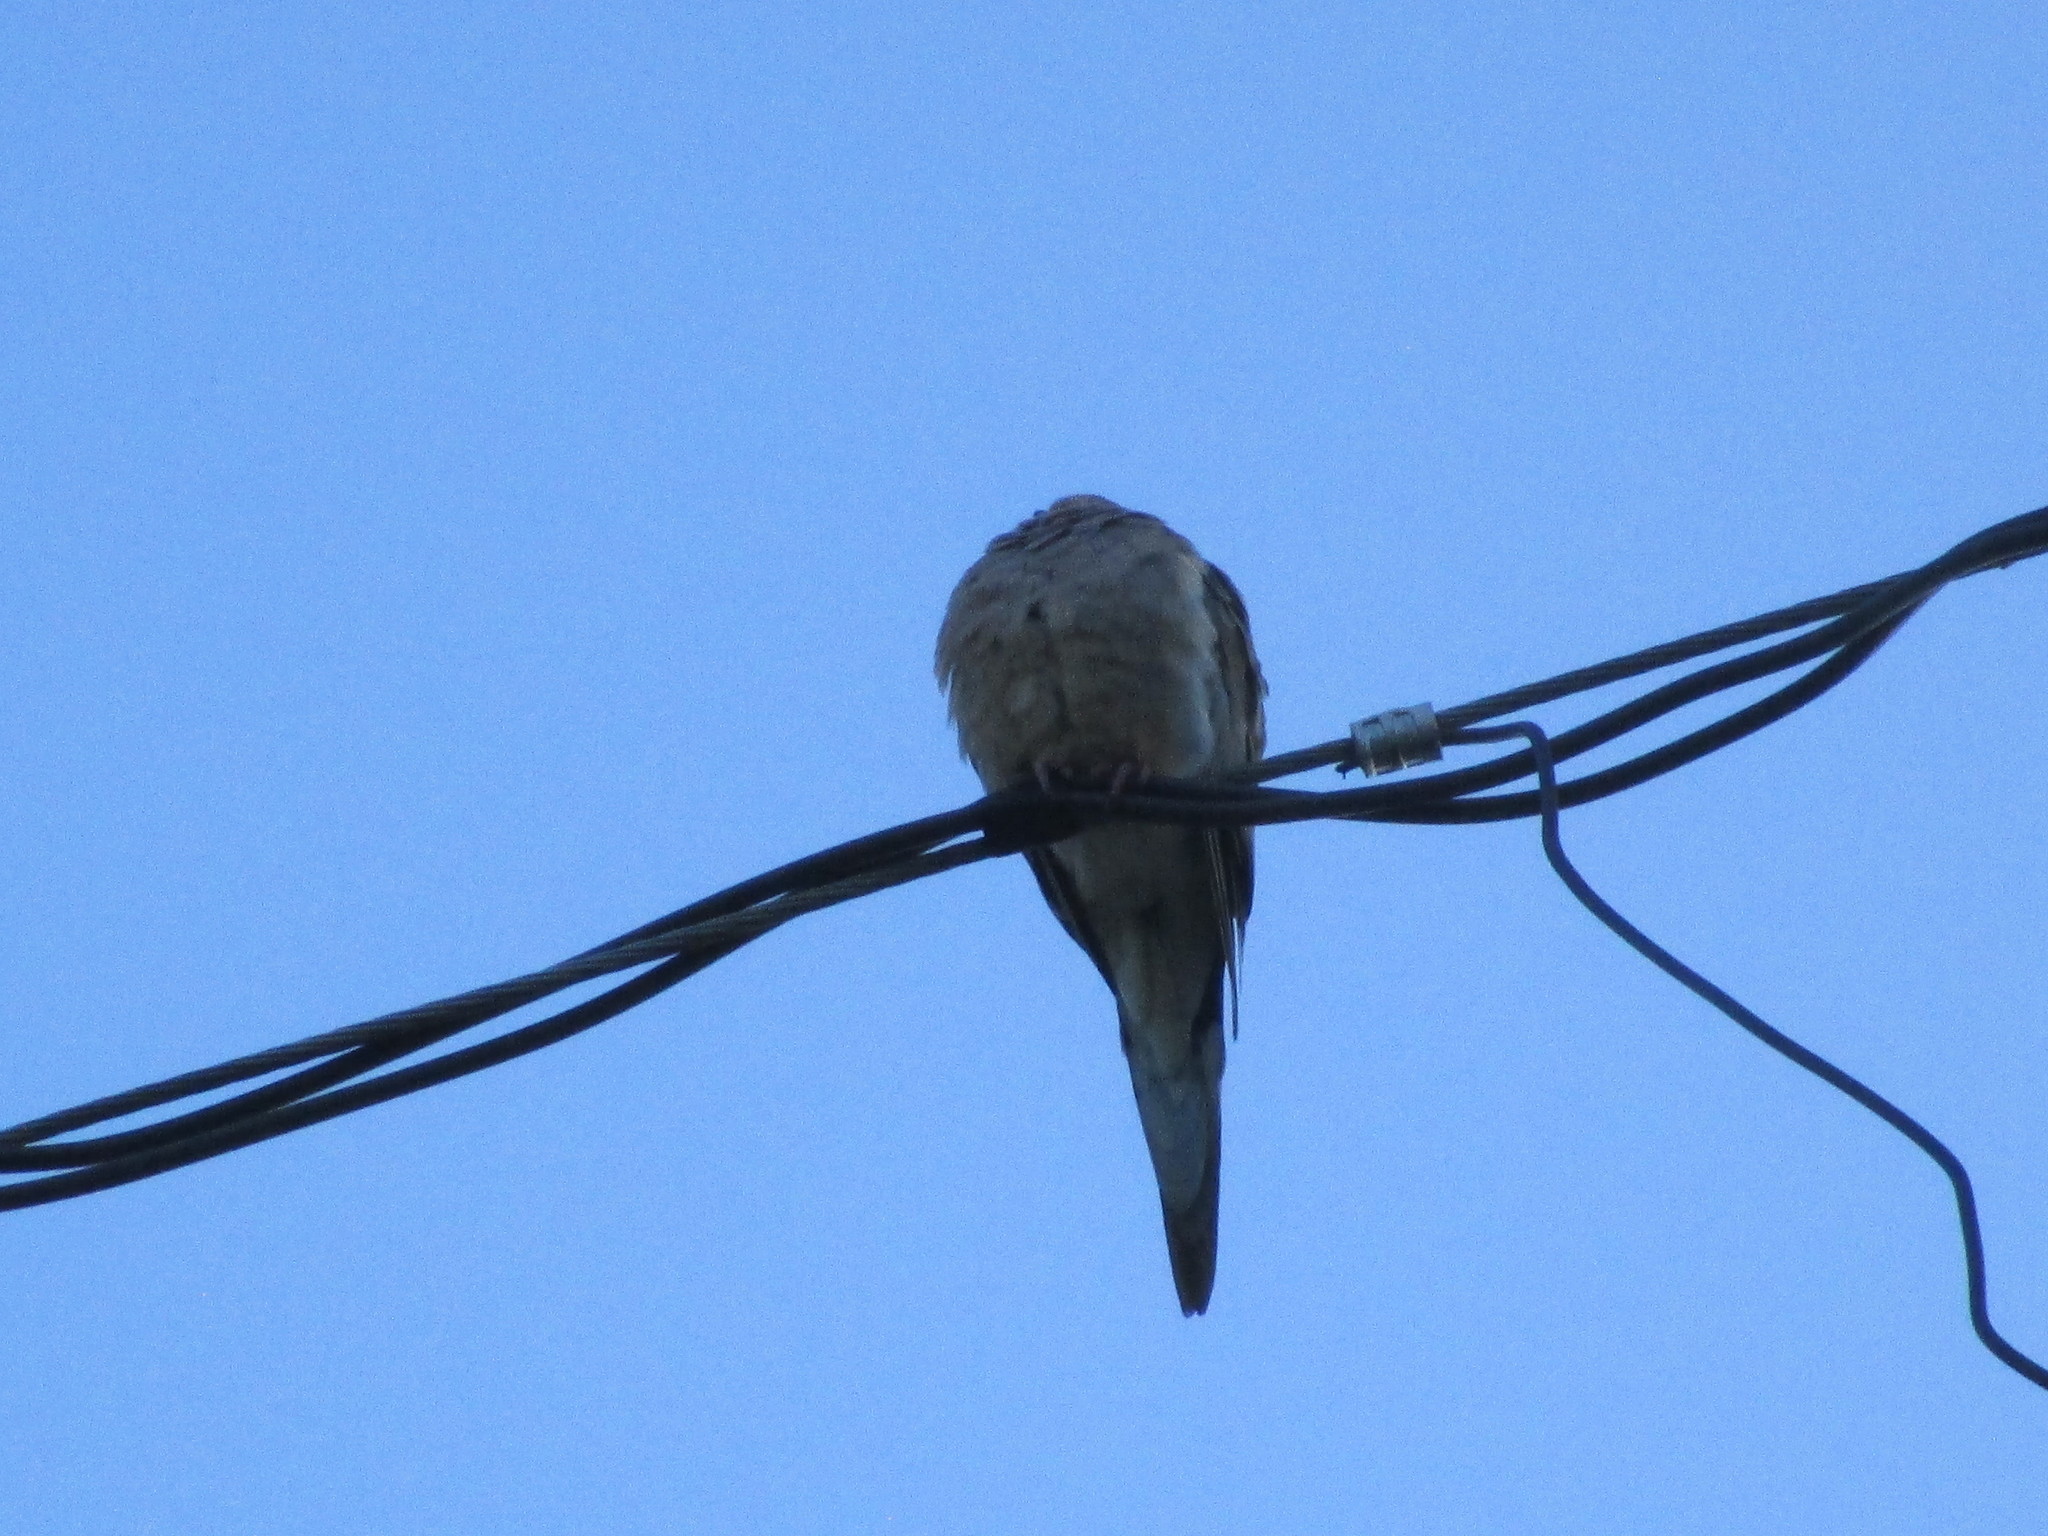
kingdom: Animalia
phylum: Chordata
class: Aves
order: Columbiformes
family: Columbidae
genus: Zenaida
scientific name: Zenaida macroura
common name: Mourning dove
